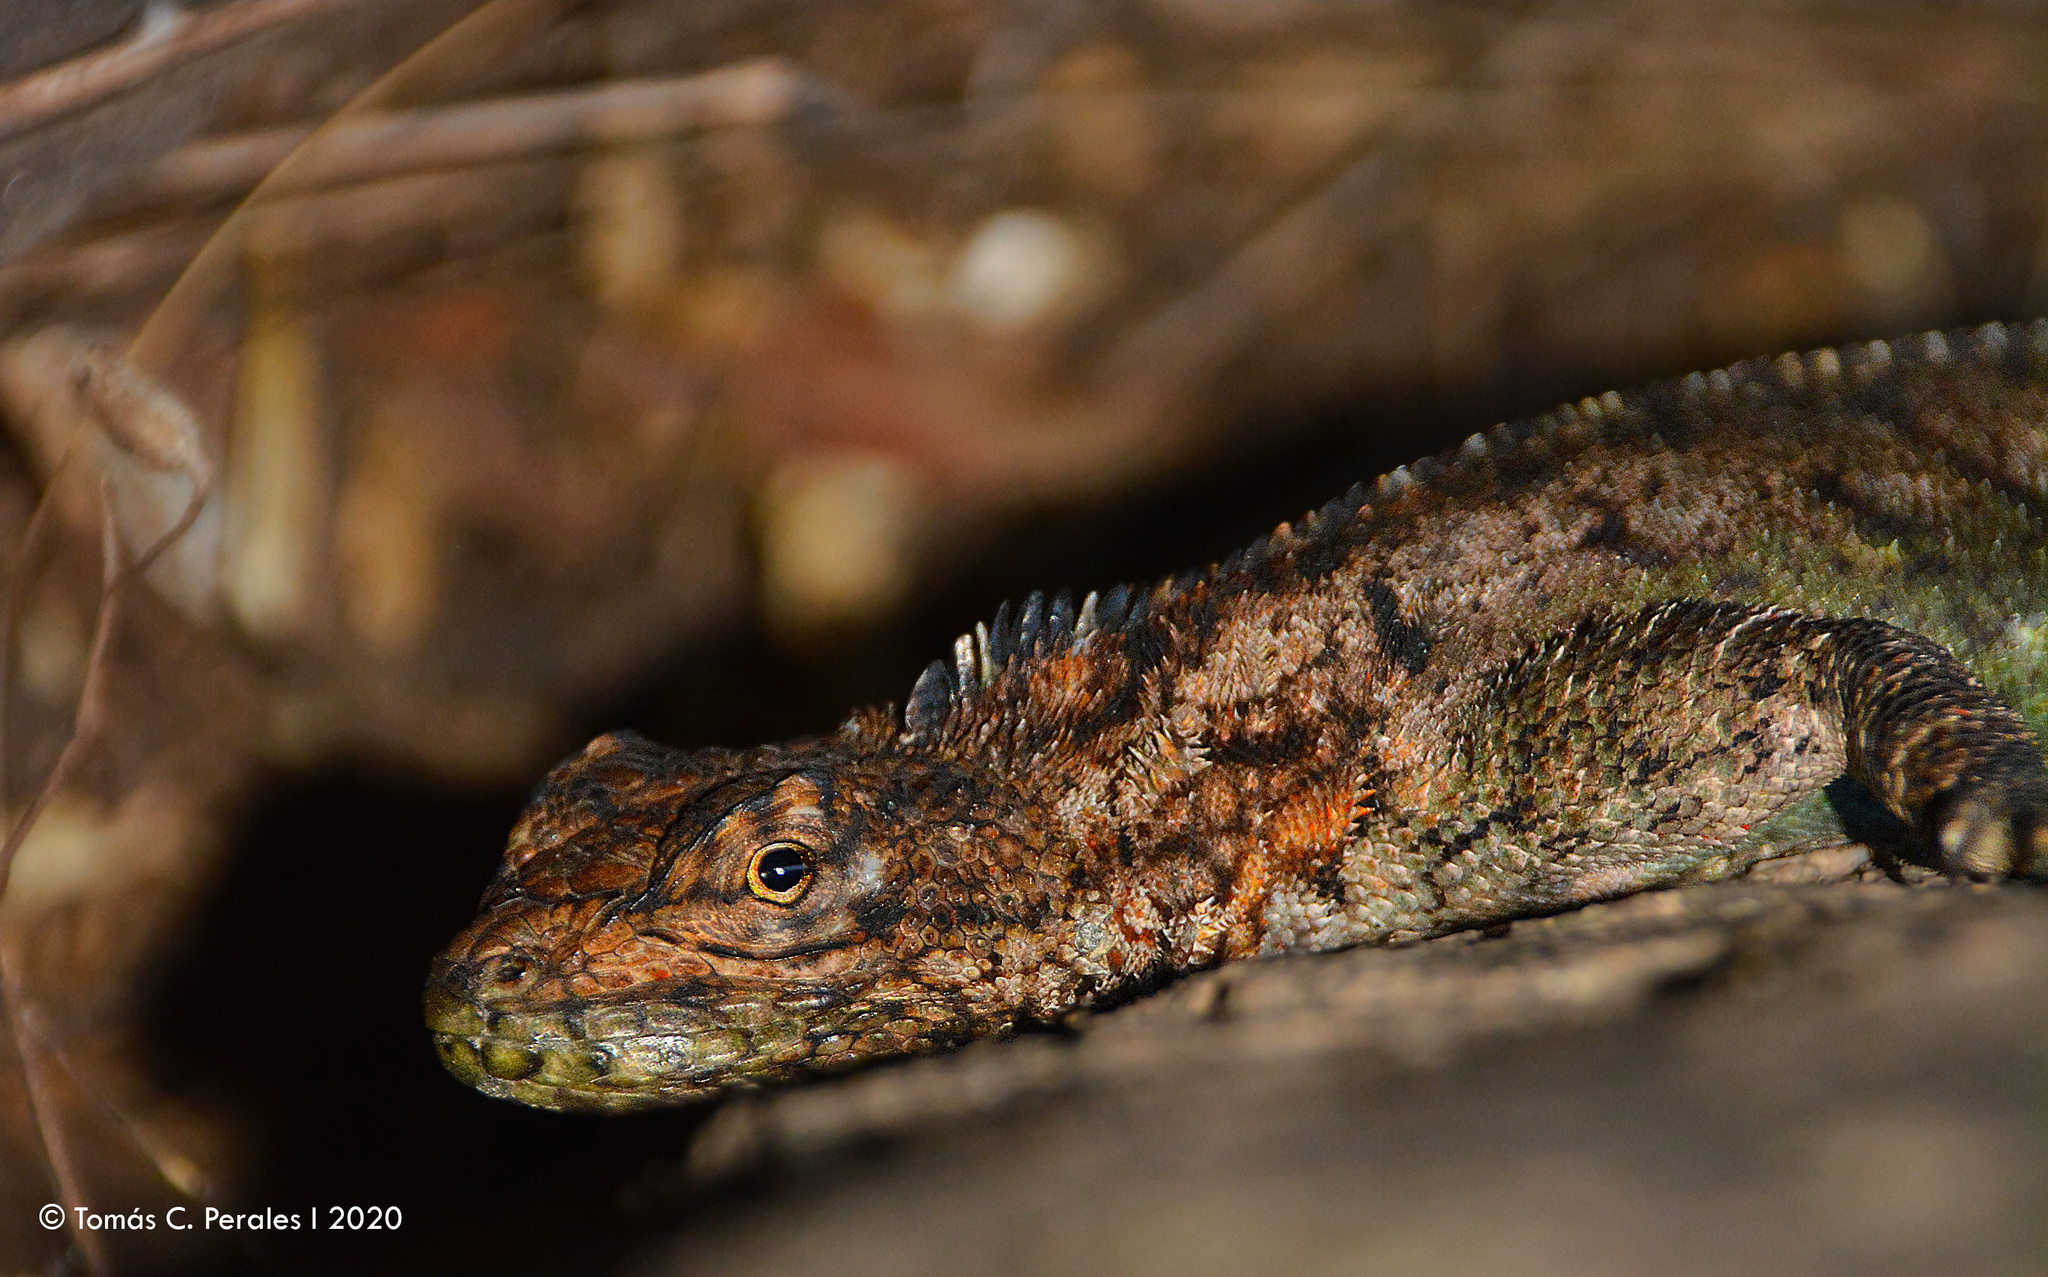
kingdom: Animalia
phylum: Chordata
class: Squamata
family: Tropiduridae
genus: Tropidurus
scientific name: Tropidurus spinulosus
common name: Spiny lava lizard
